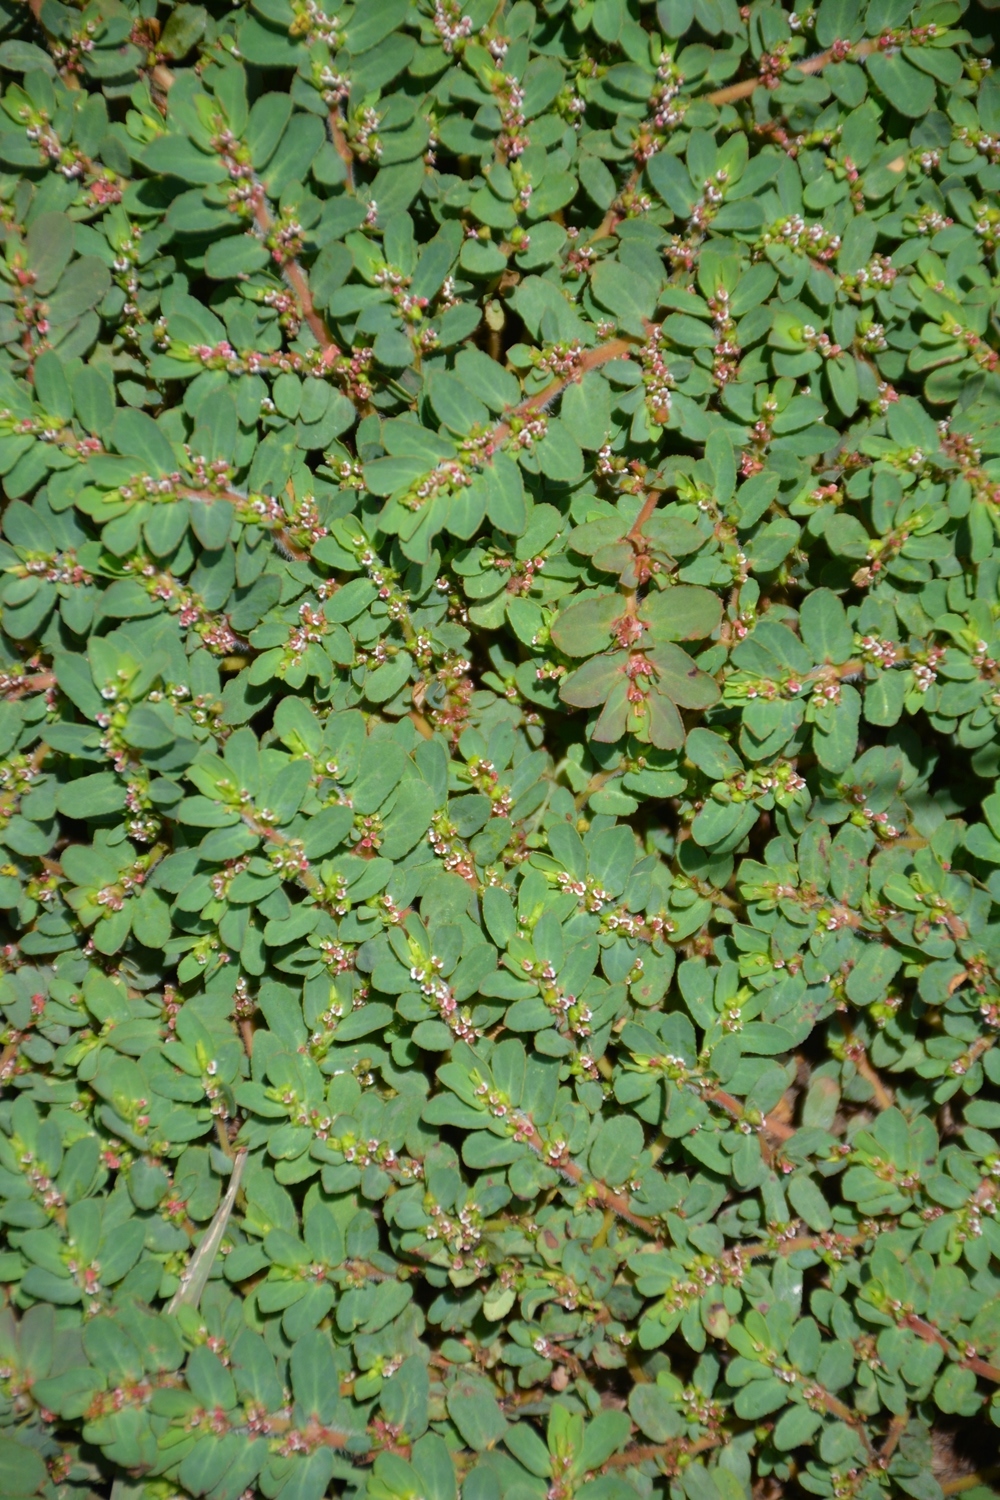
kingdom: Plantae
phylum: Tracheophyta
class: Magnoliopsida
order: Malpighiales
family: Euphorbiaceae
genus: Euphorbia
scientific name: Euphorbia mendezii
